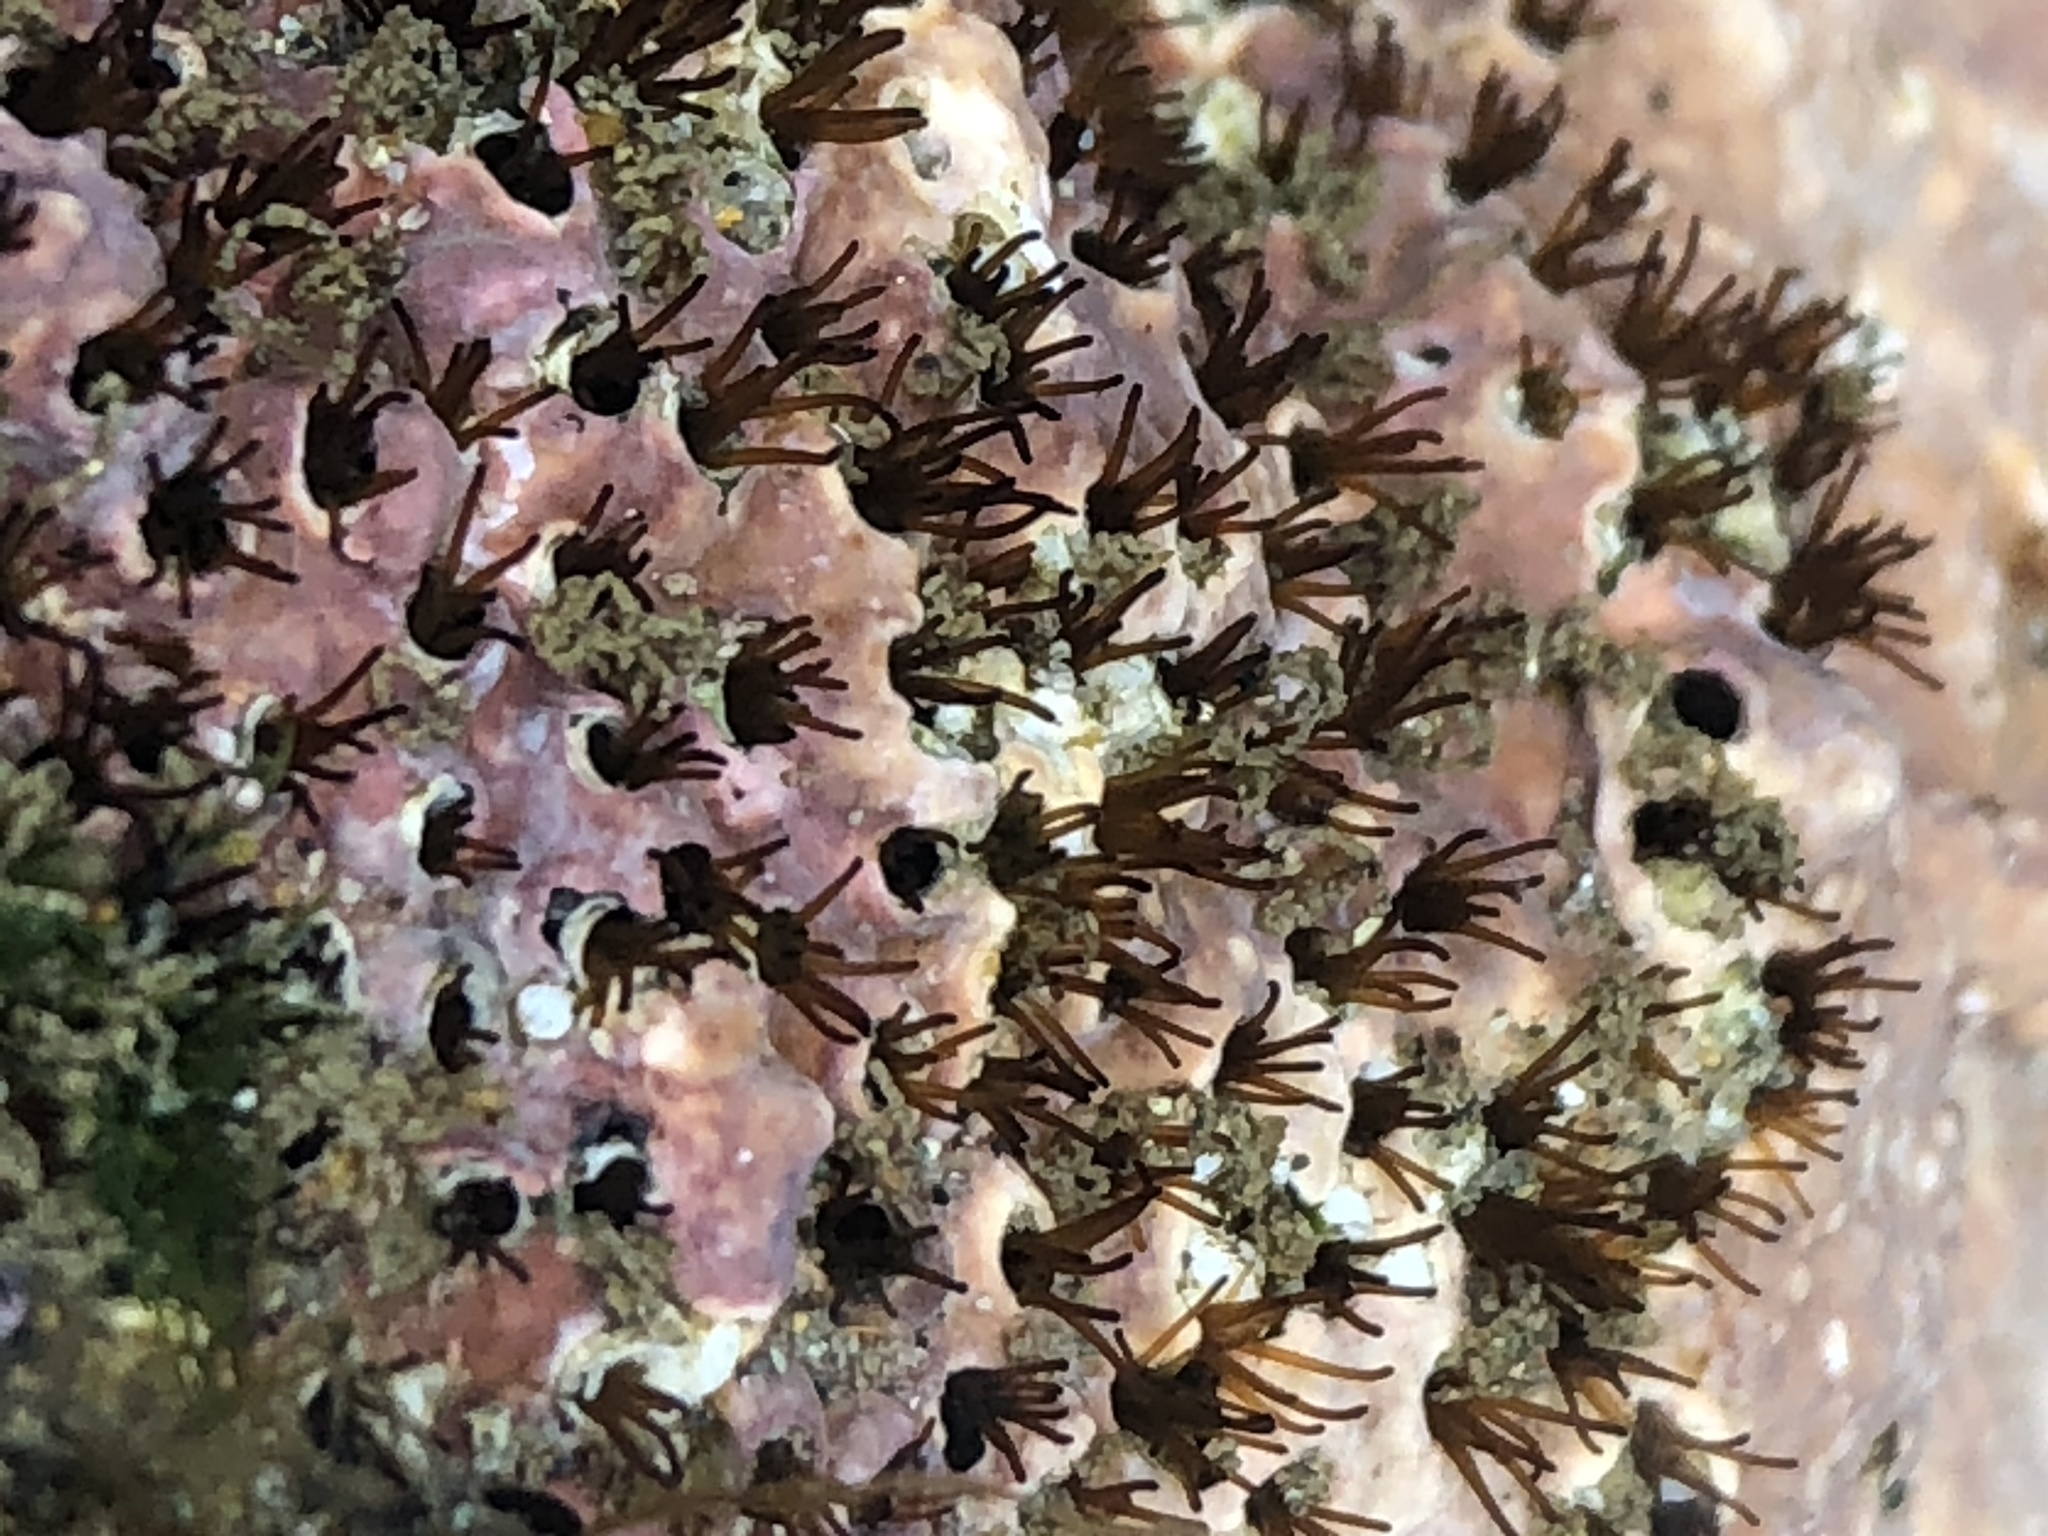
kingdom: Animalia
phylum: Annelida
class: Polychaeta
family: Cirratulidae
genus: Dodecaceria
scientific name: Dodecaceria pacifica
